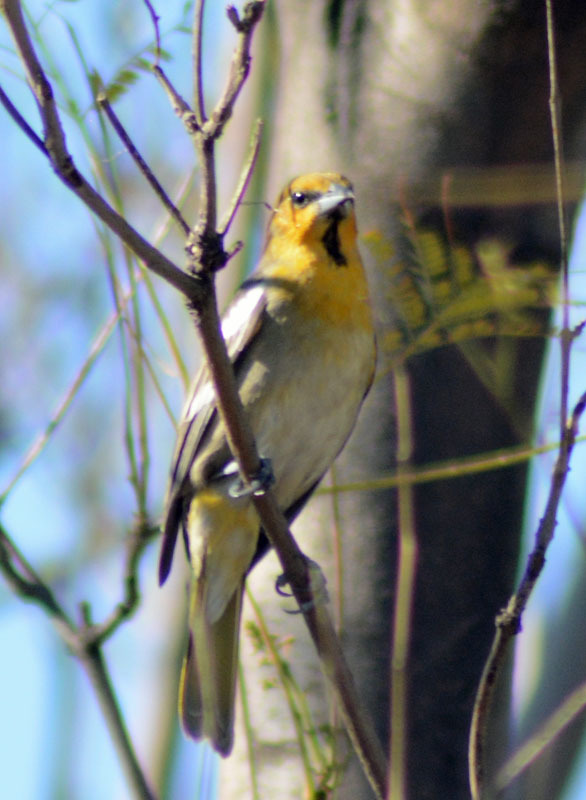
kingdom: Animalia
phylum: Chordata
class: Aves
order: Passeriformes
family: Icteridae
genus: Icterus
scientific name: Icterus bullockii
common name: Bullock's oriole
